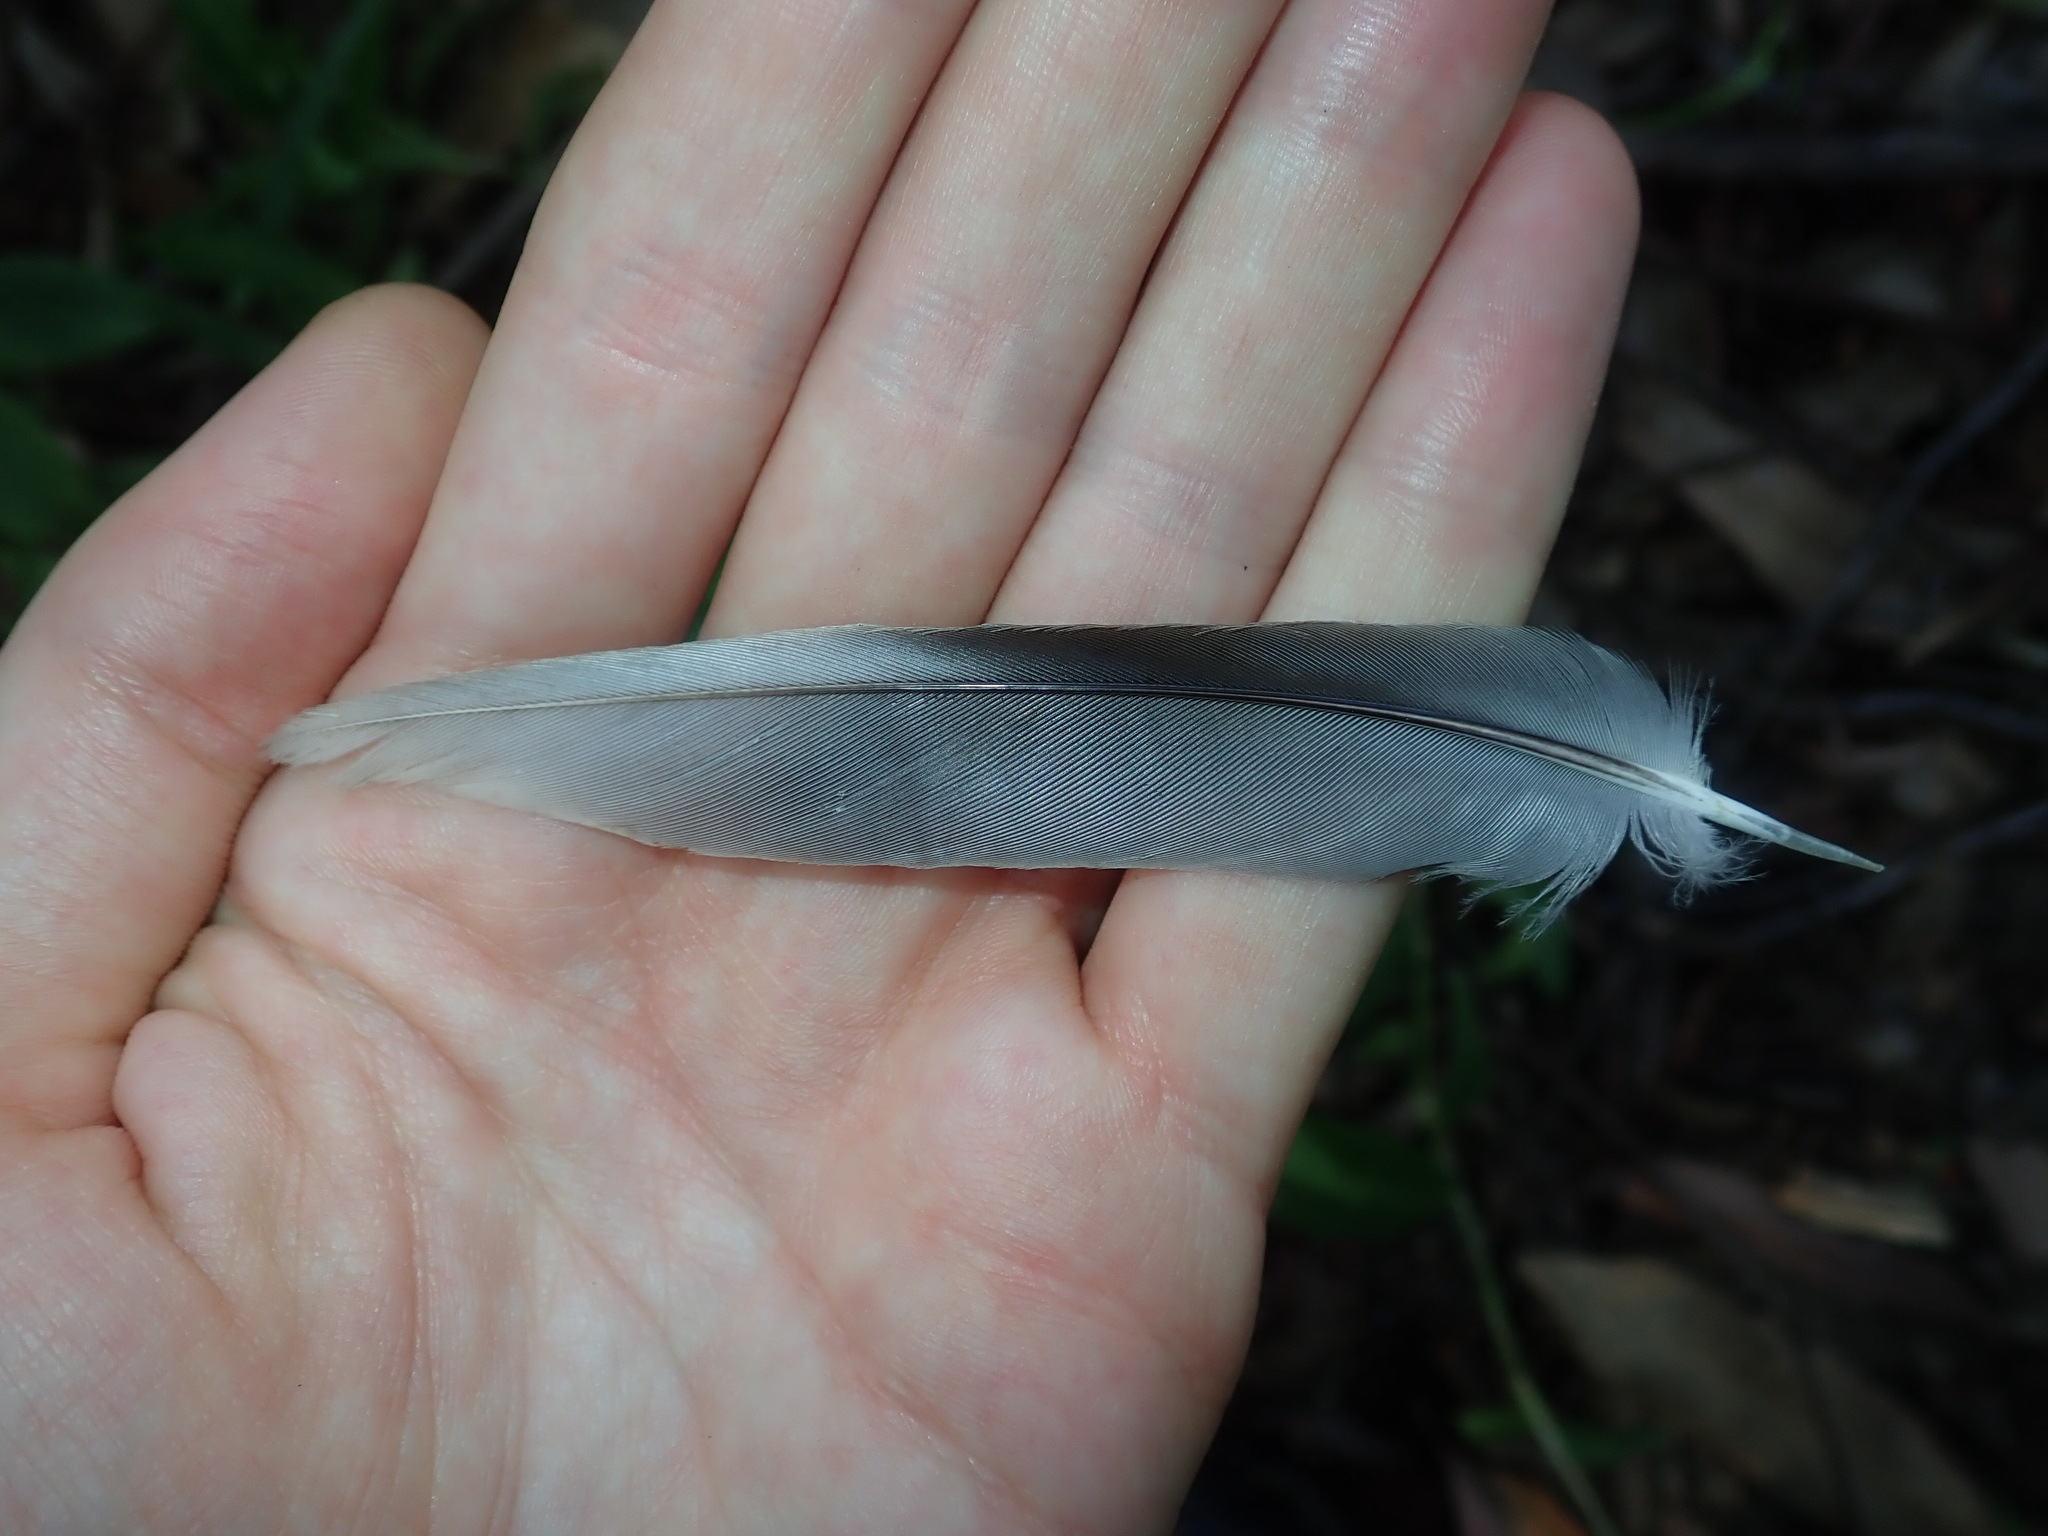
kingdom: Animalia
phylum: Chordata
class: Aves
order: Psittaciformes
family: Psittacidae
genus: Psephotus
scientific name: Psephotus haematonotus
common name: Red-rumped parrot
